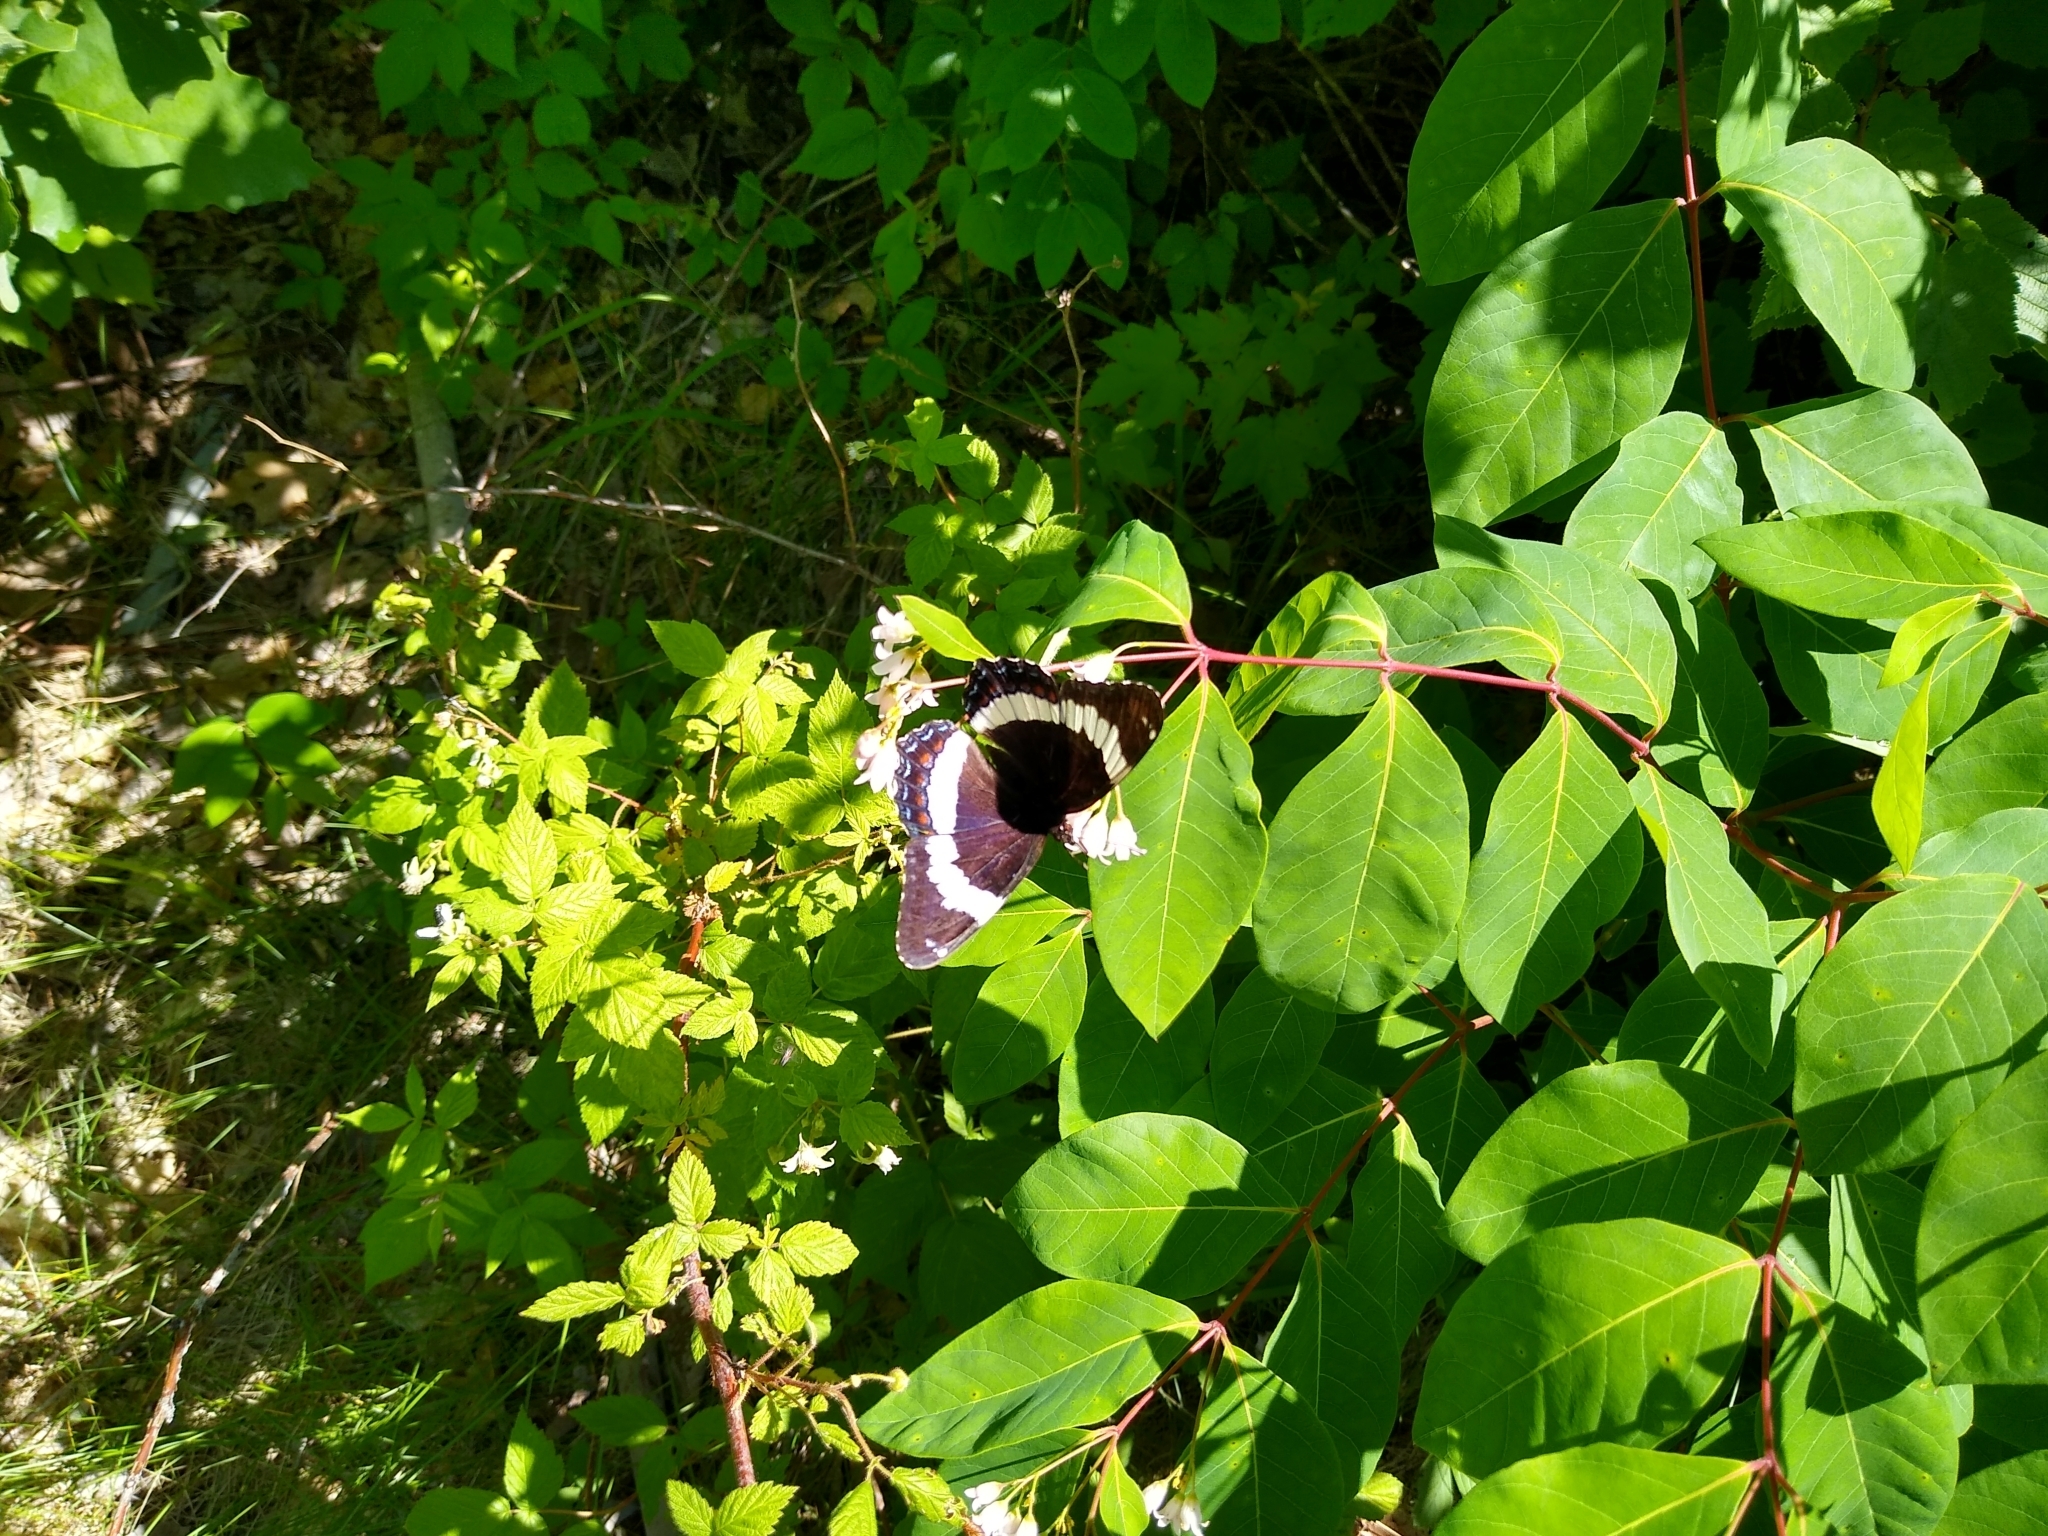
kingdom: Animalia
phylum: Arthropoda
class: Insecta
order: Lepidoptera
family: Nymphalidae
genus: Limenitis
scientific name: Limenitis arthemis
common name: Red-spotted admiral
